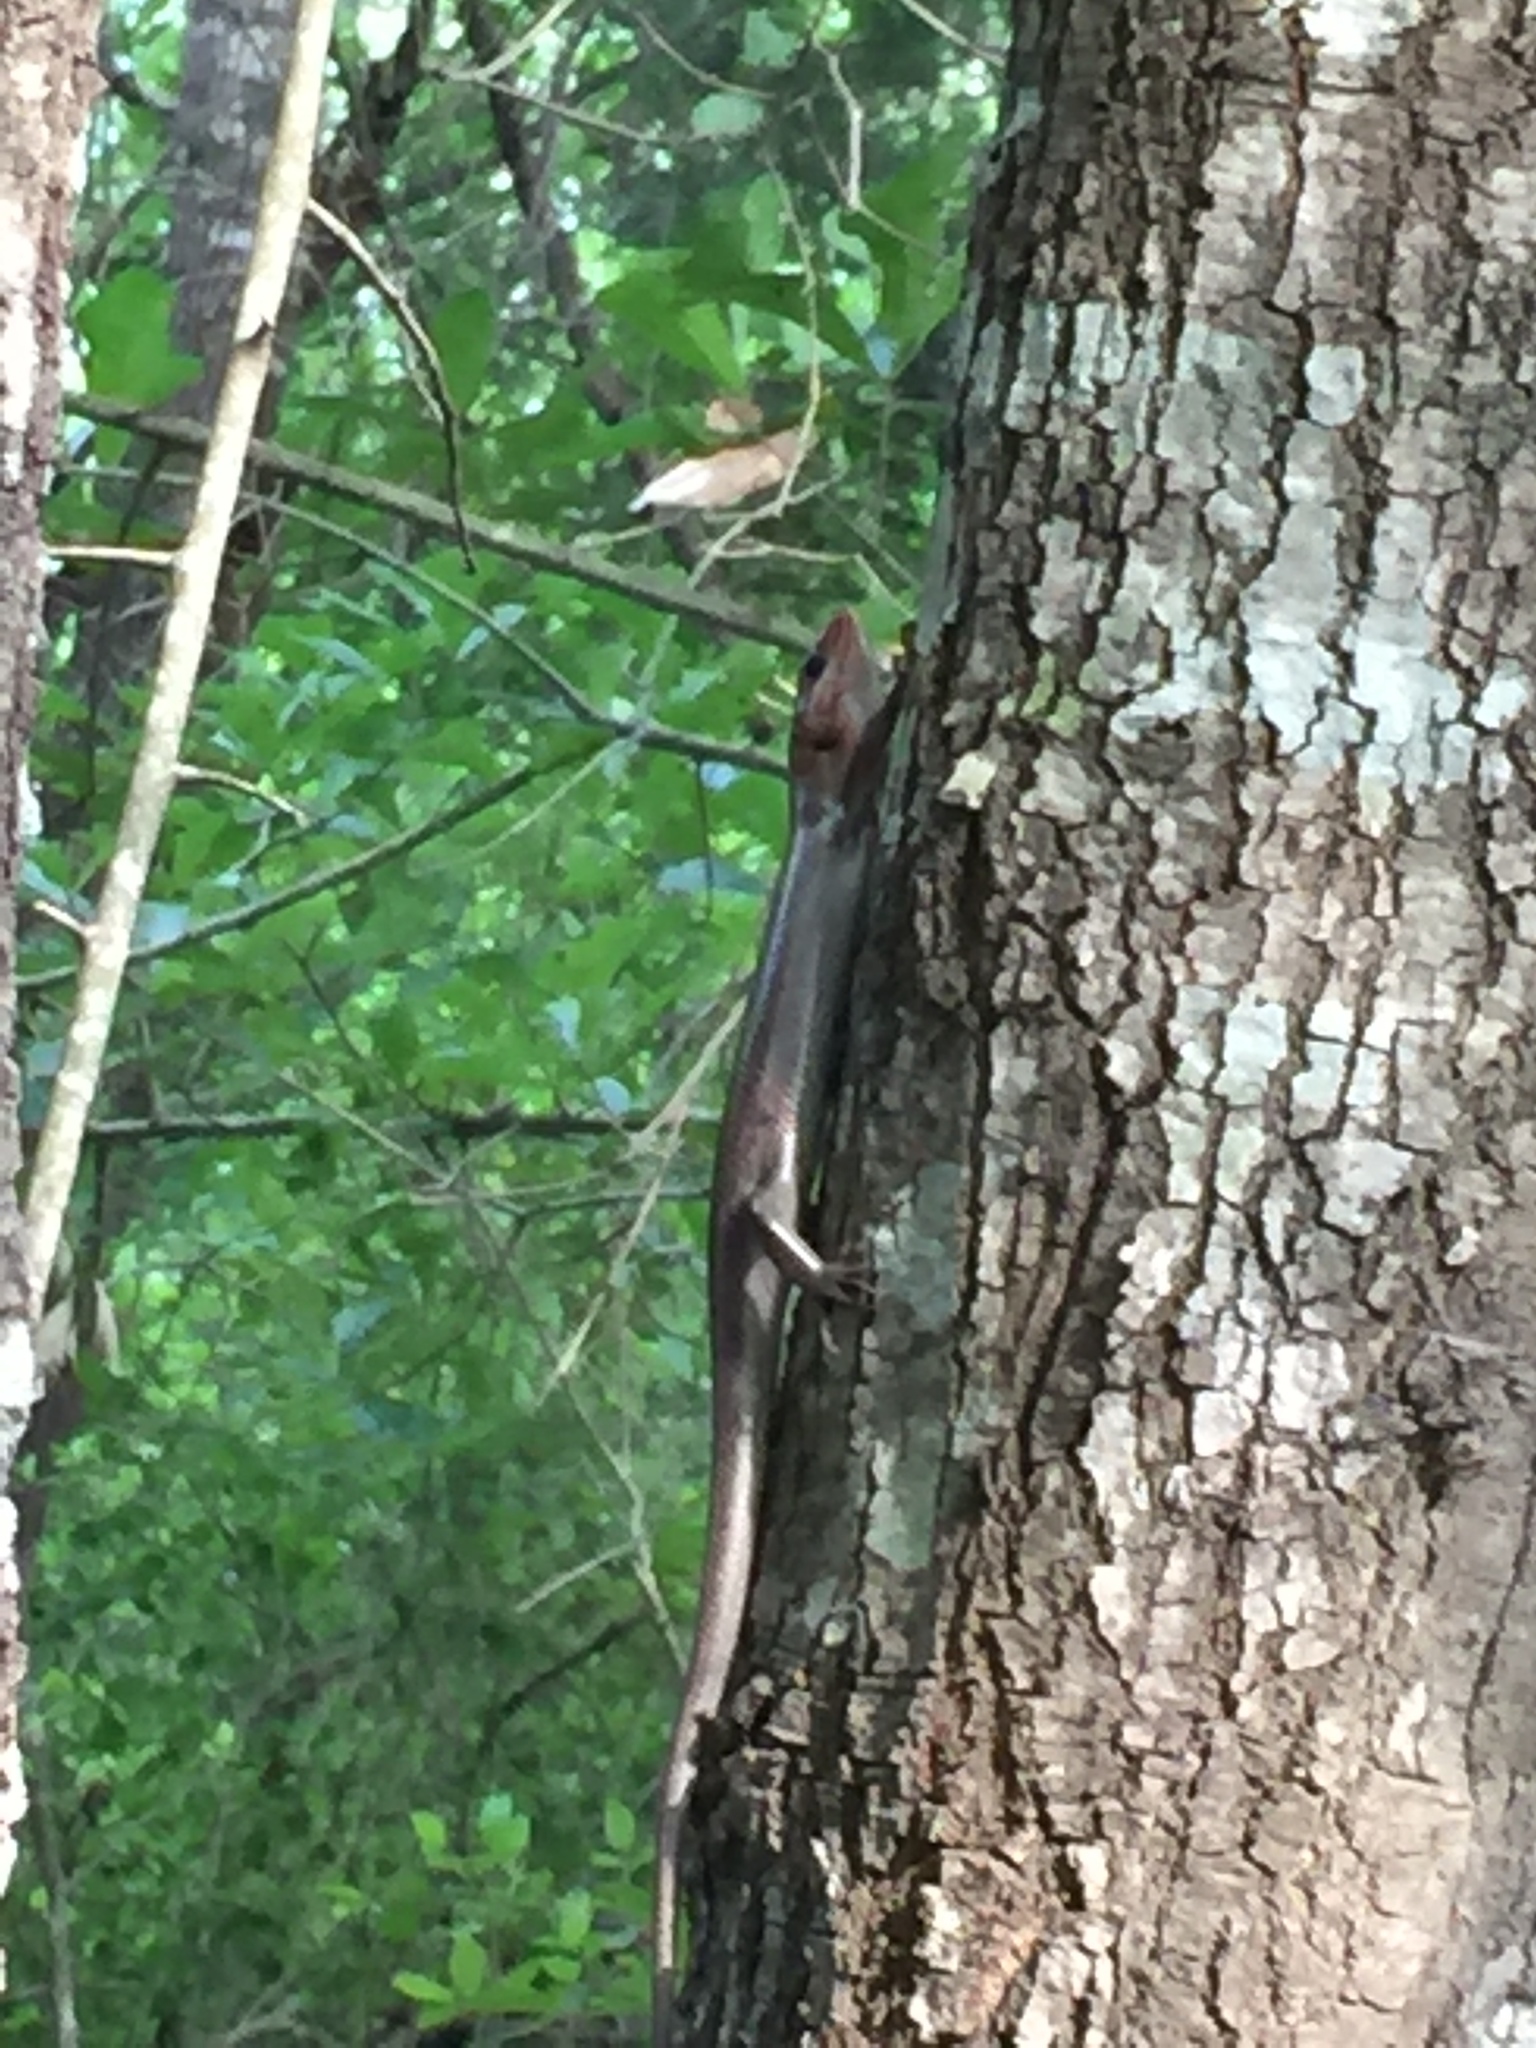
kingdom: Animalia
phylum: Chordata
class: Squamata
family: Scincidae
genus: Plestiodon
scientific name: Plestiodon
